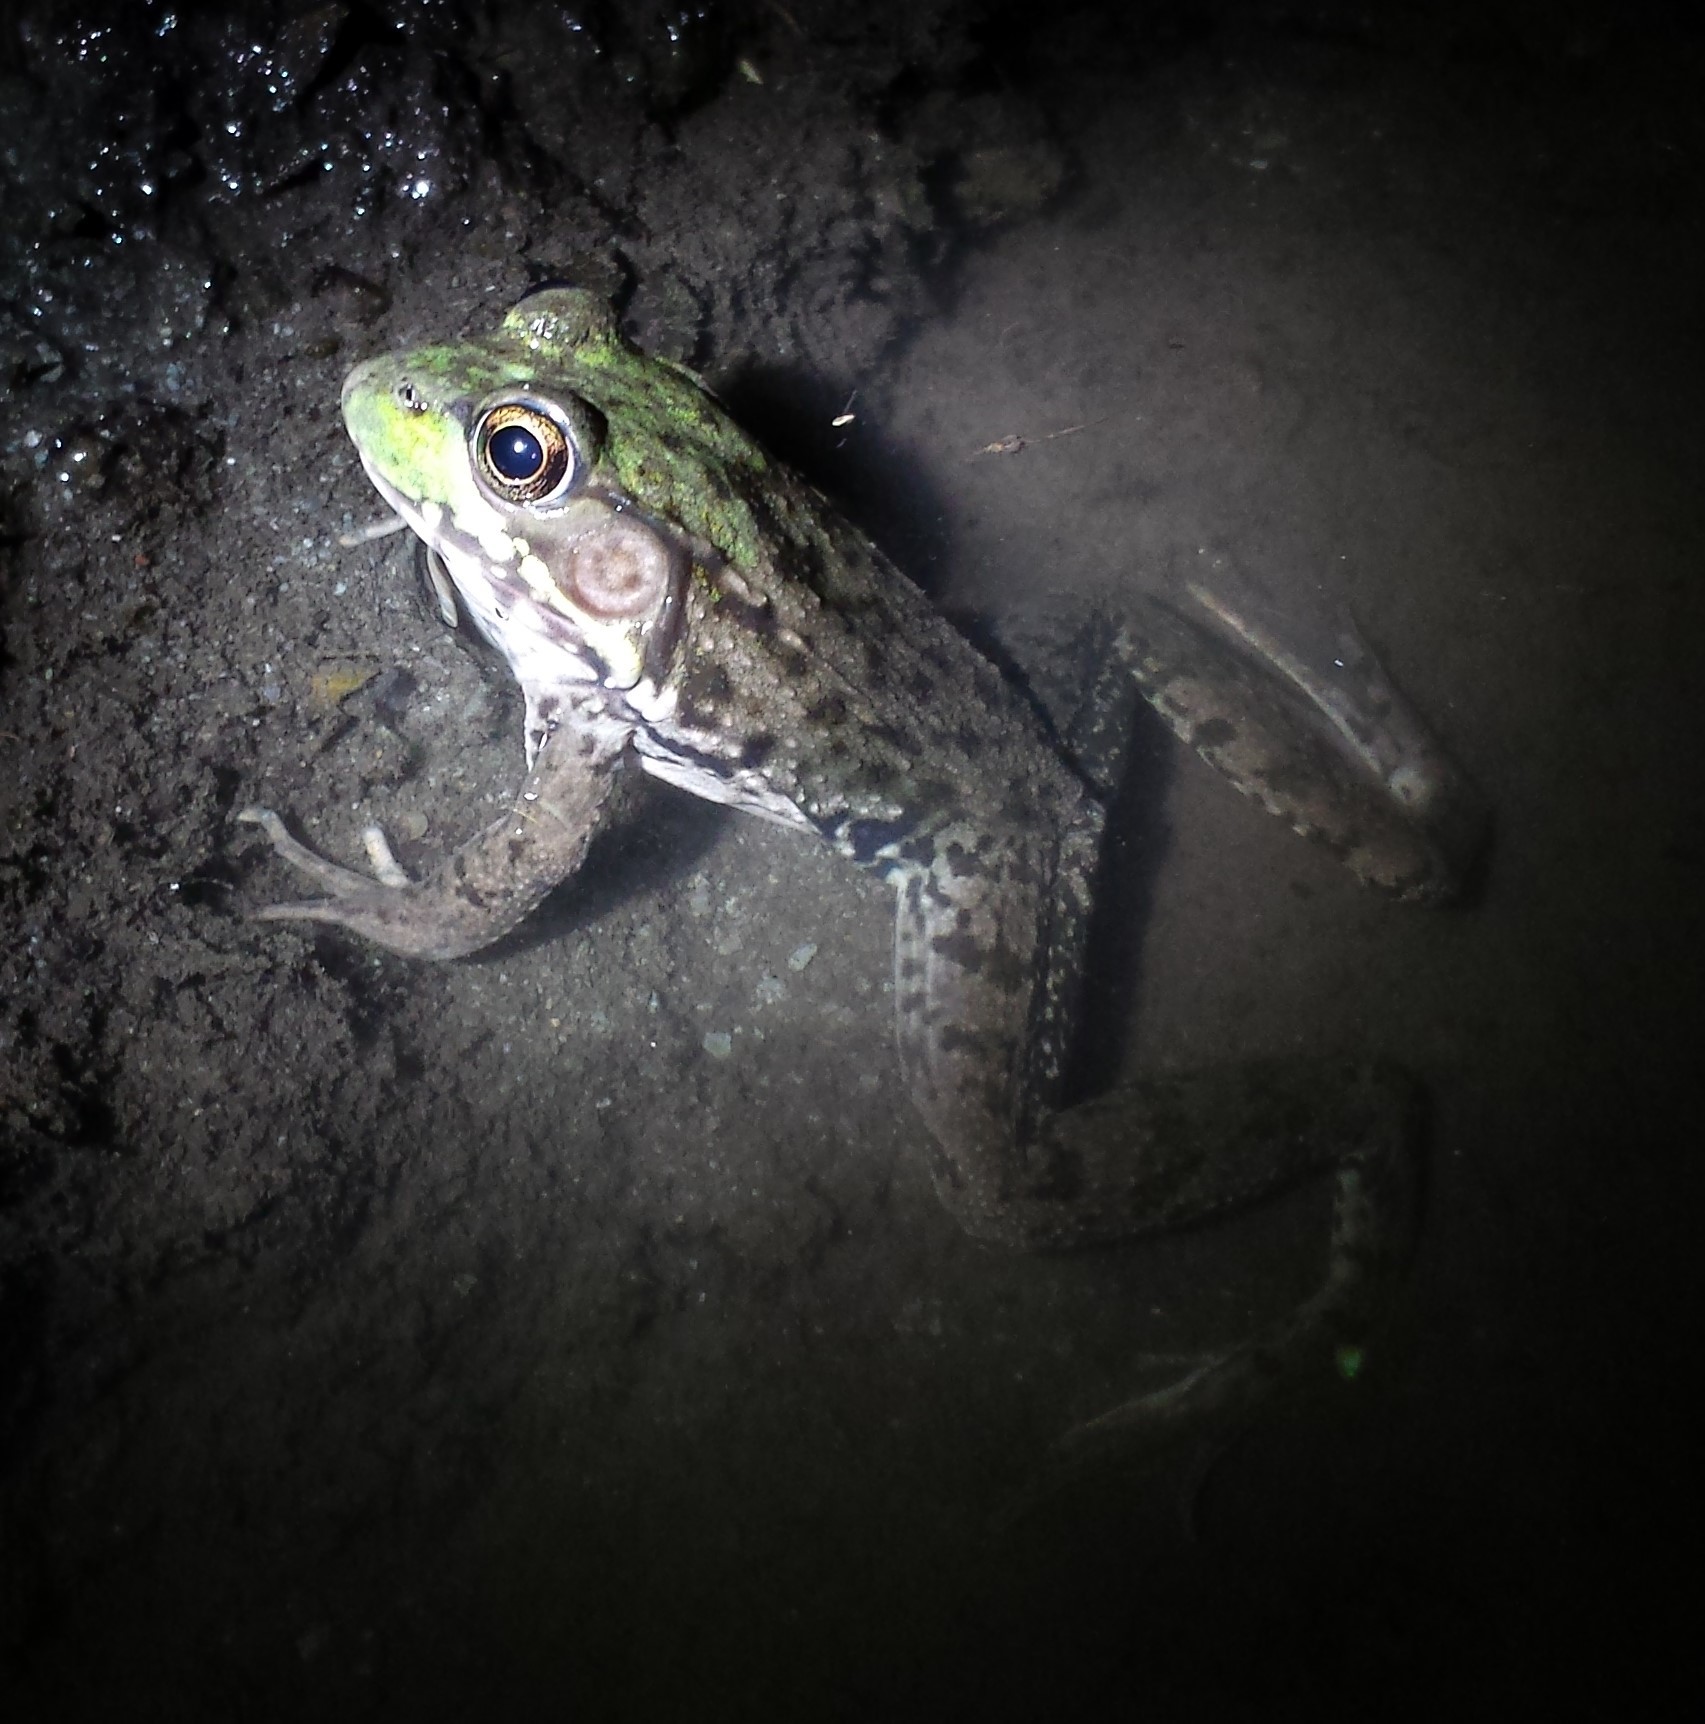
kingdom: Animalia
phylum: Chordata
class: Amphibia
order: Anura
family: Ranidae
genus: Lithobates
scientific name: Lithobates clamitans
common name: Green frog
